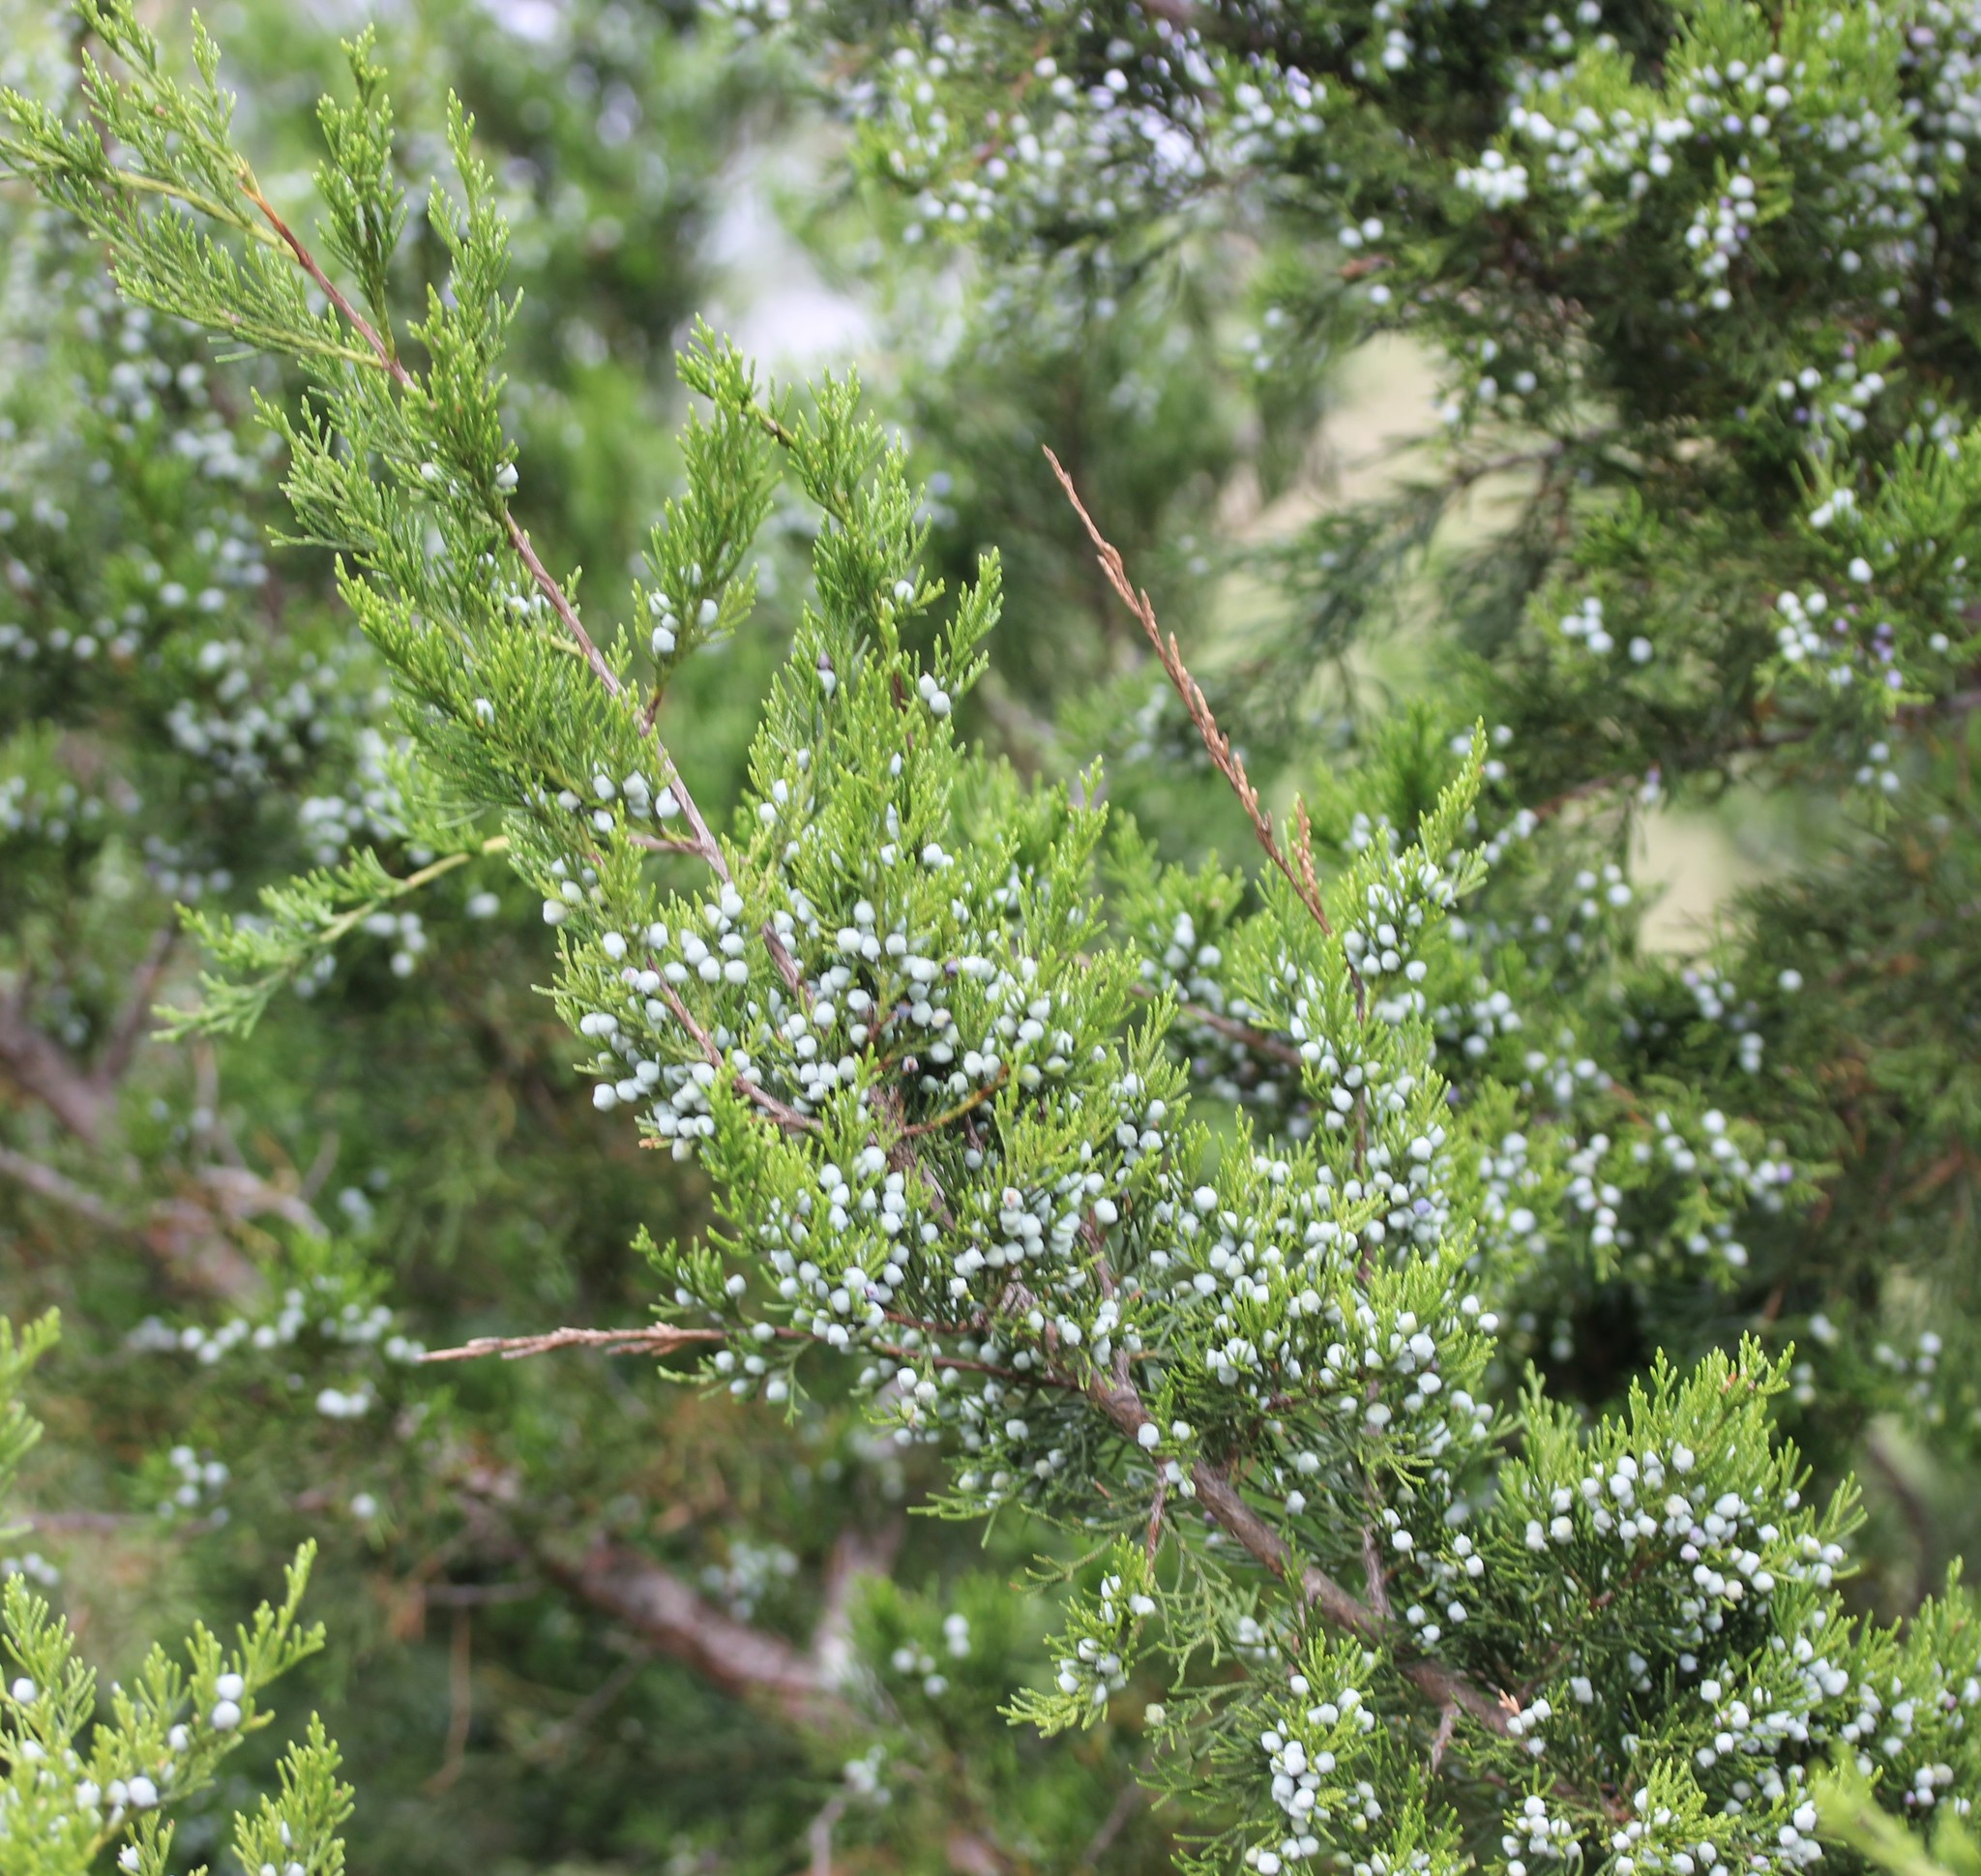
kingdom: Plantae
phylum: Tracheophyta
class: Pinopsida
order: Pinales
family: Cupressaceae
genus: Juniperus
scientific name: Juniperus virginiana
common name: Red juniper
